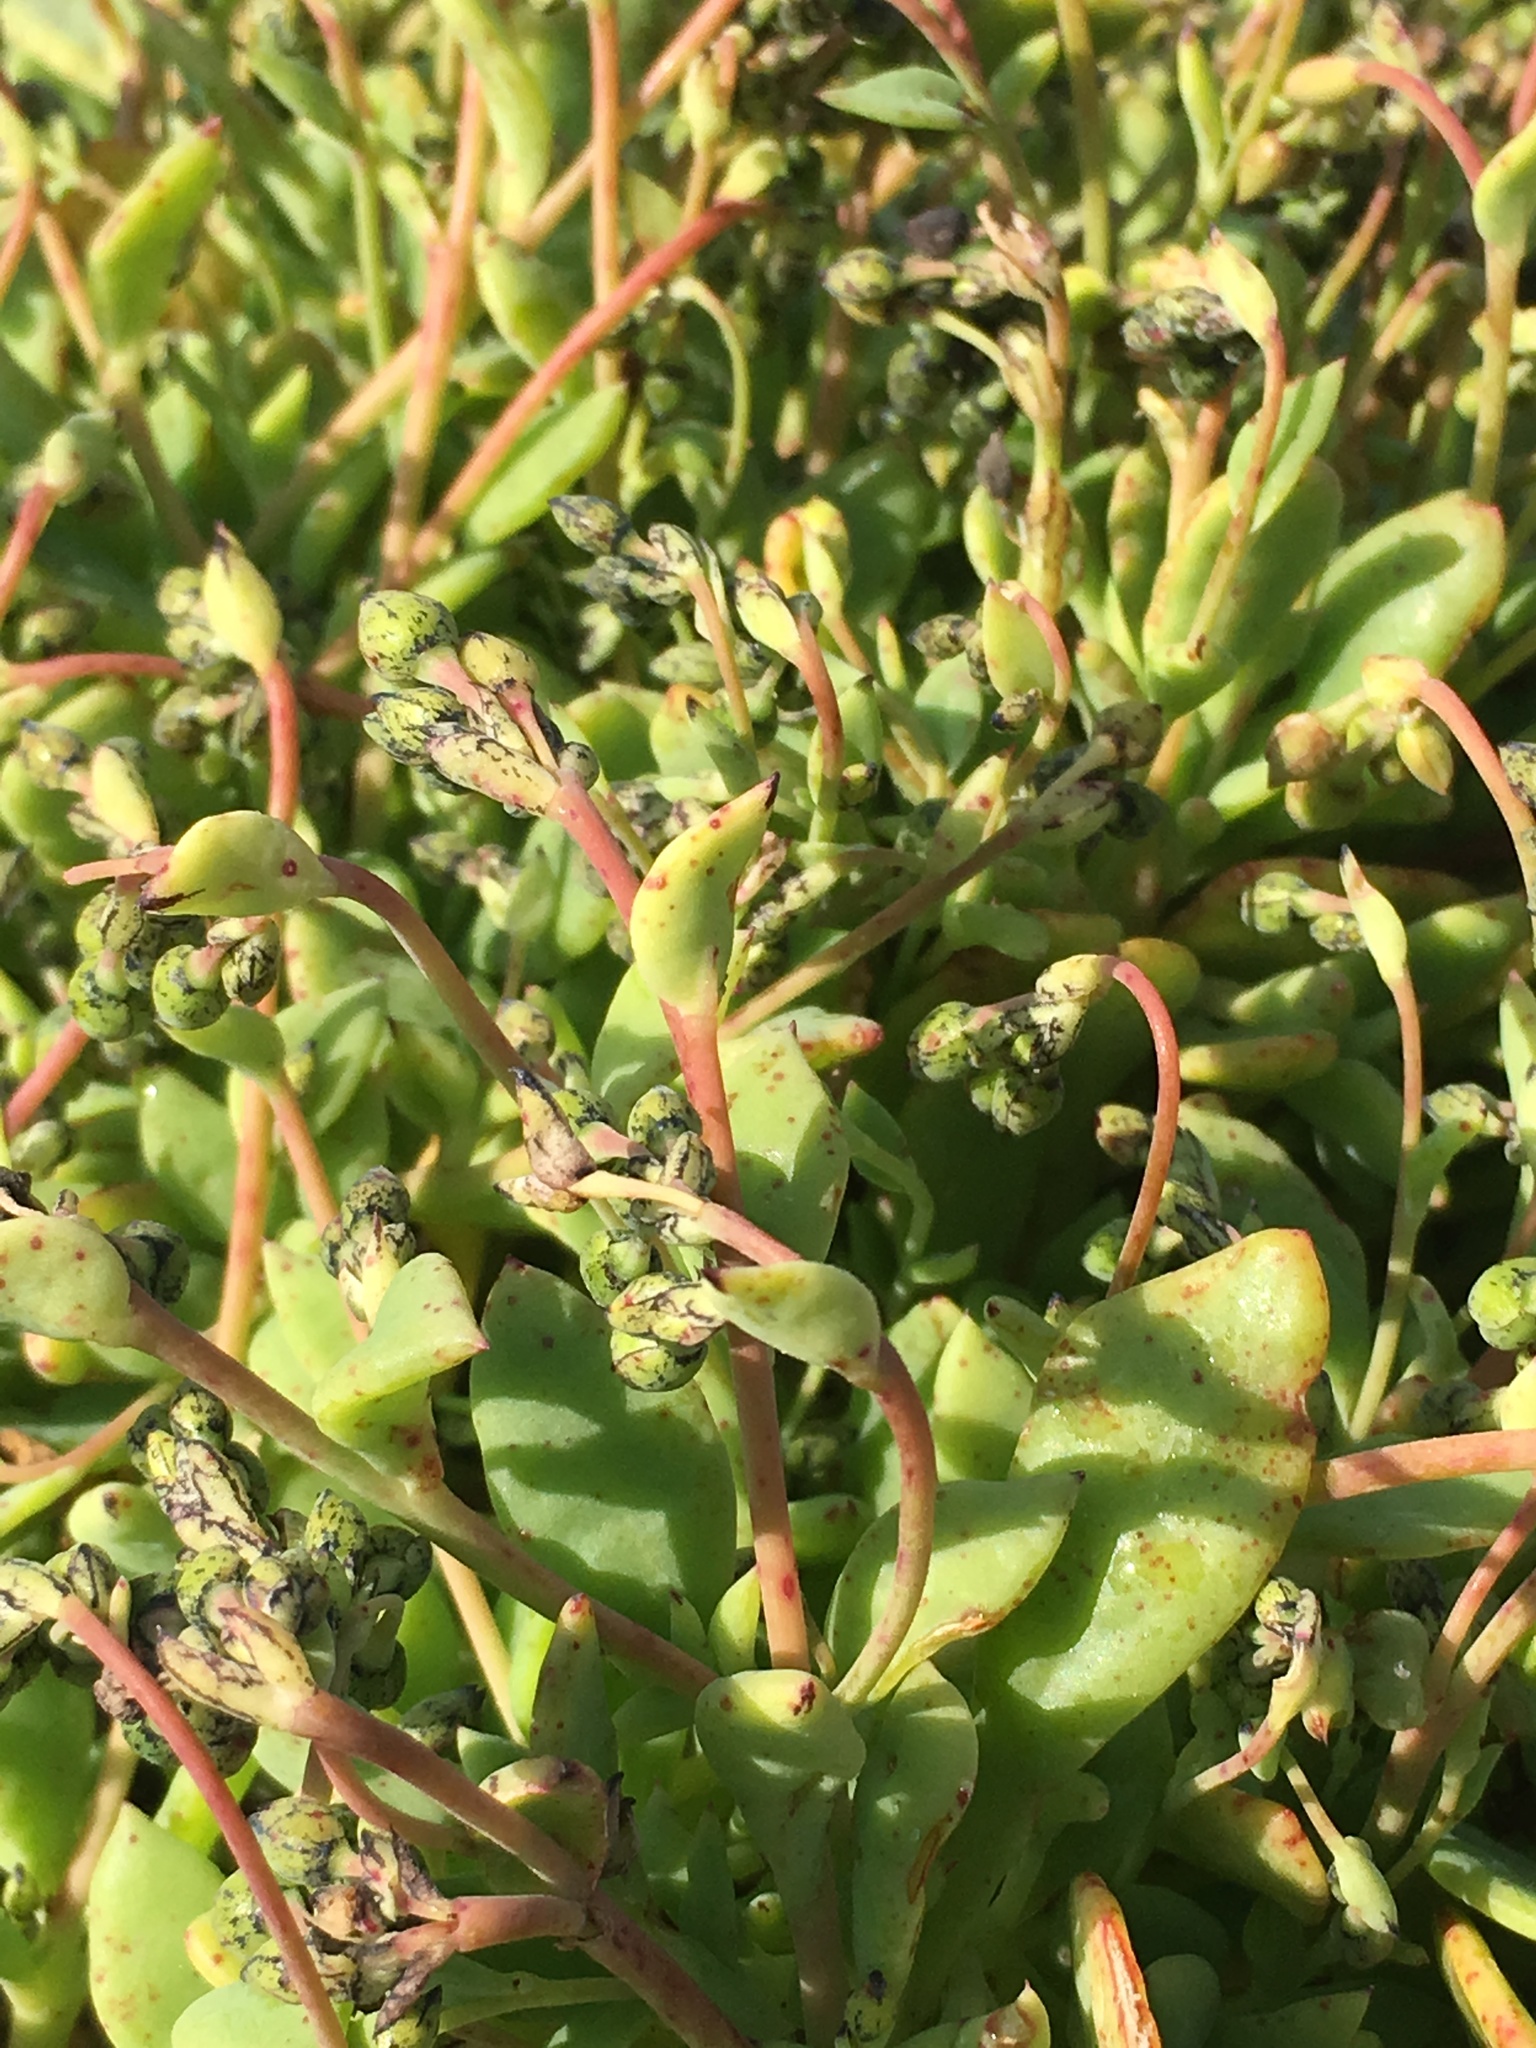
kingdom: Plantae
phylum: Tracheophyta
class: Magnoliopsida
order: Caryophyllales
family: Montiaceae
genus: Cistanthe
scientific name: Cistanthe maritima
